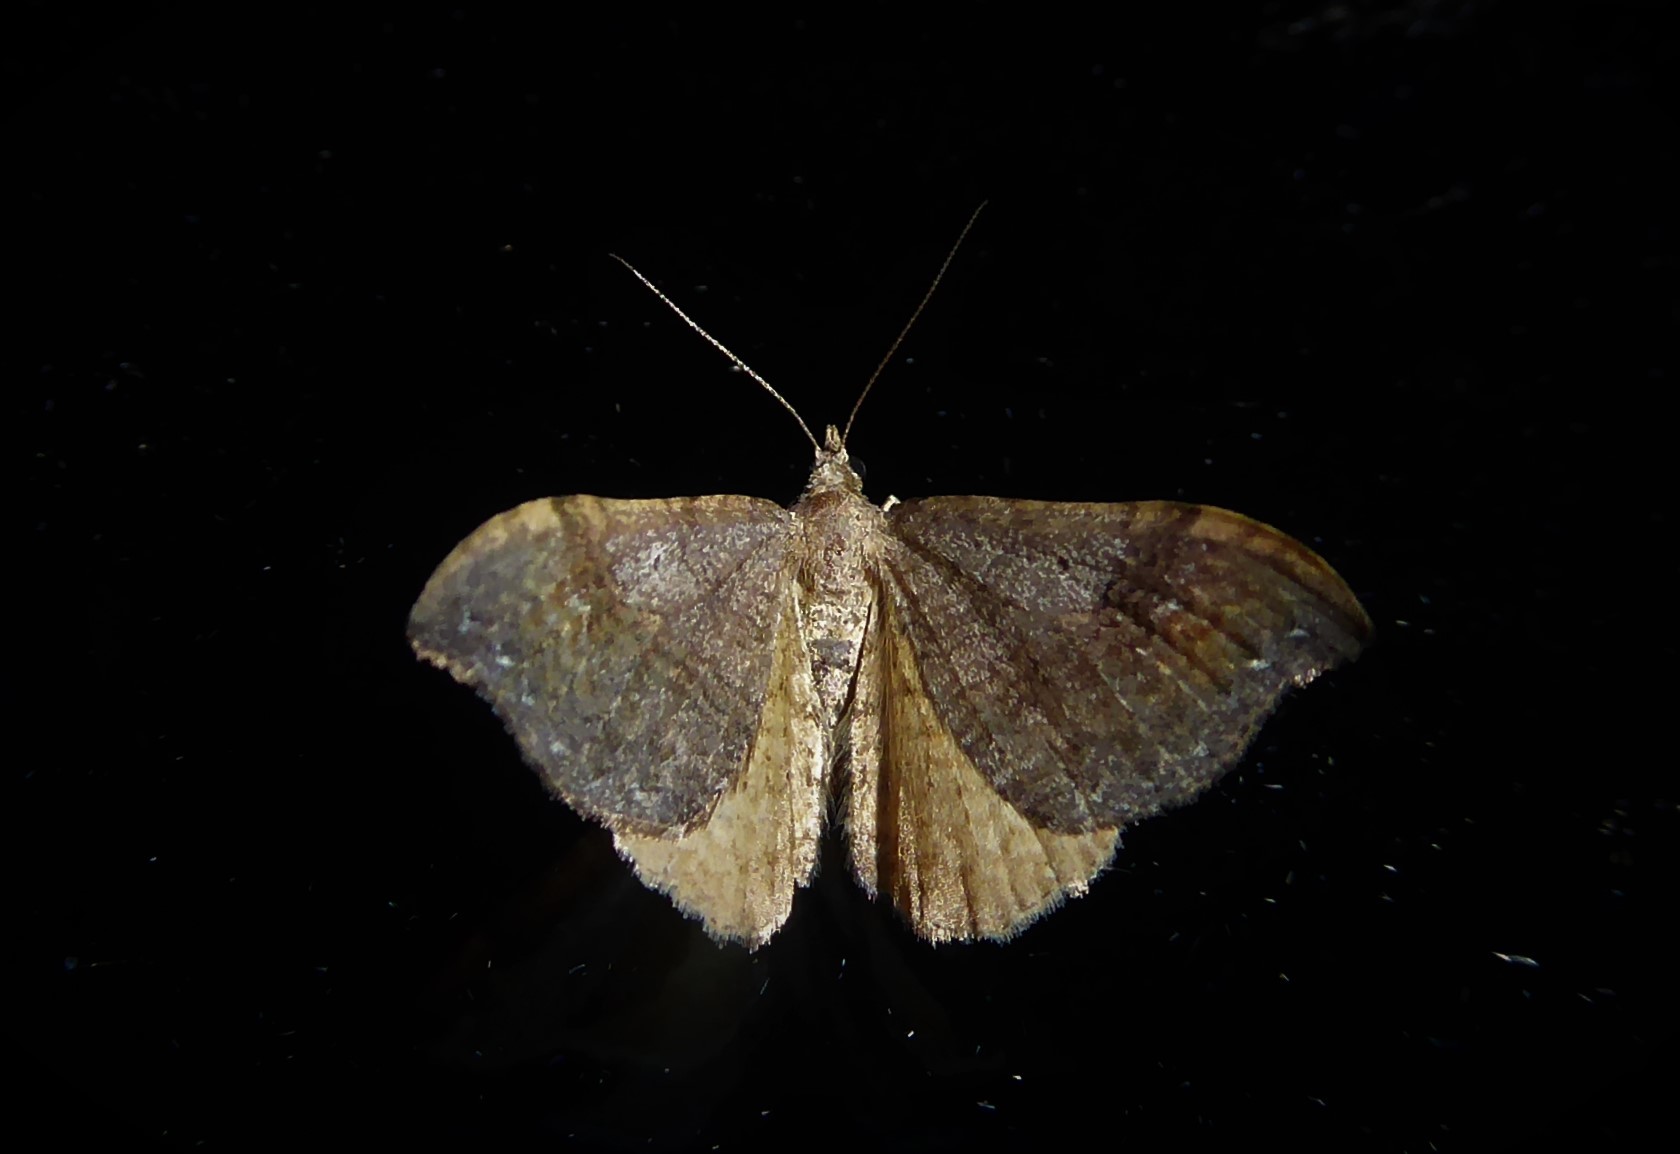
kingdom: Animalia
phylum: Arthropoda
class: Insecta
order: Lepidoptera
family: Geometridae
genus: Homodotis
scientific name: Homodotis megaspilata
